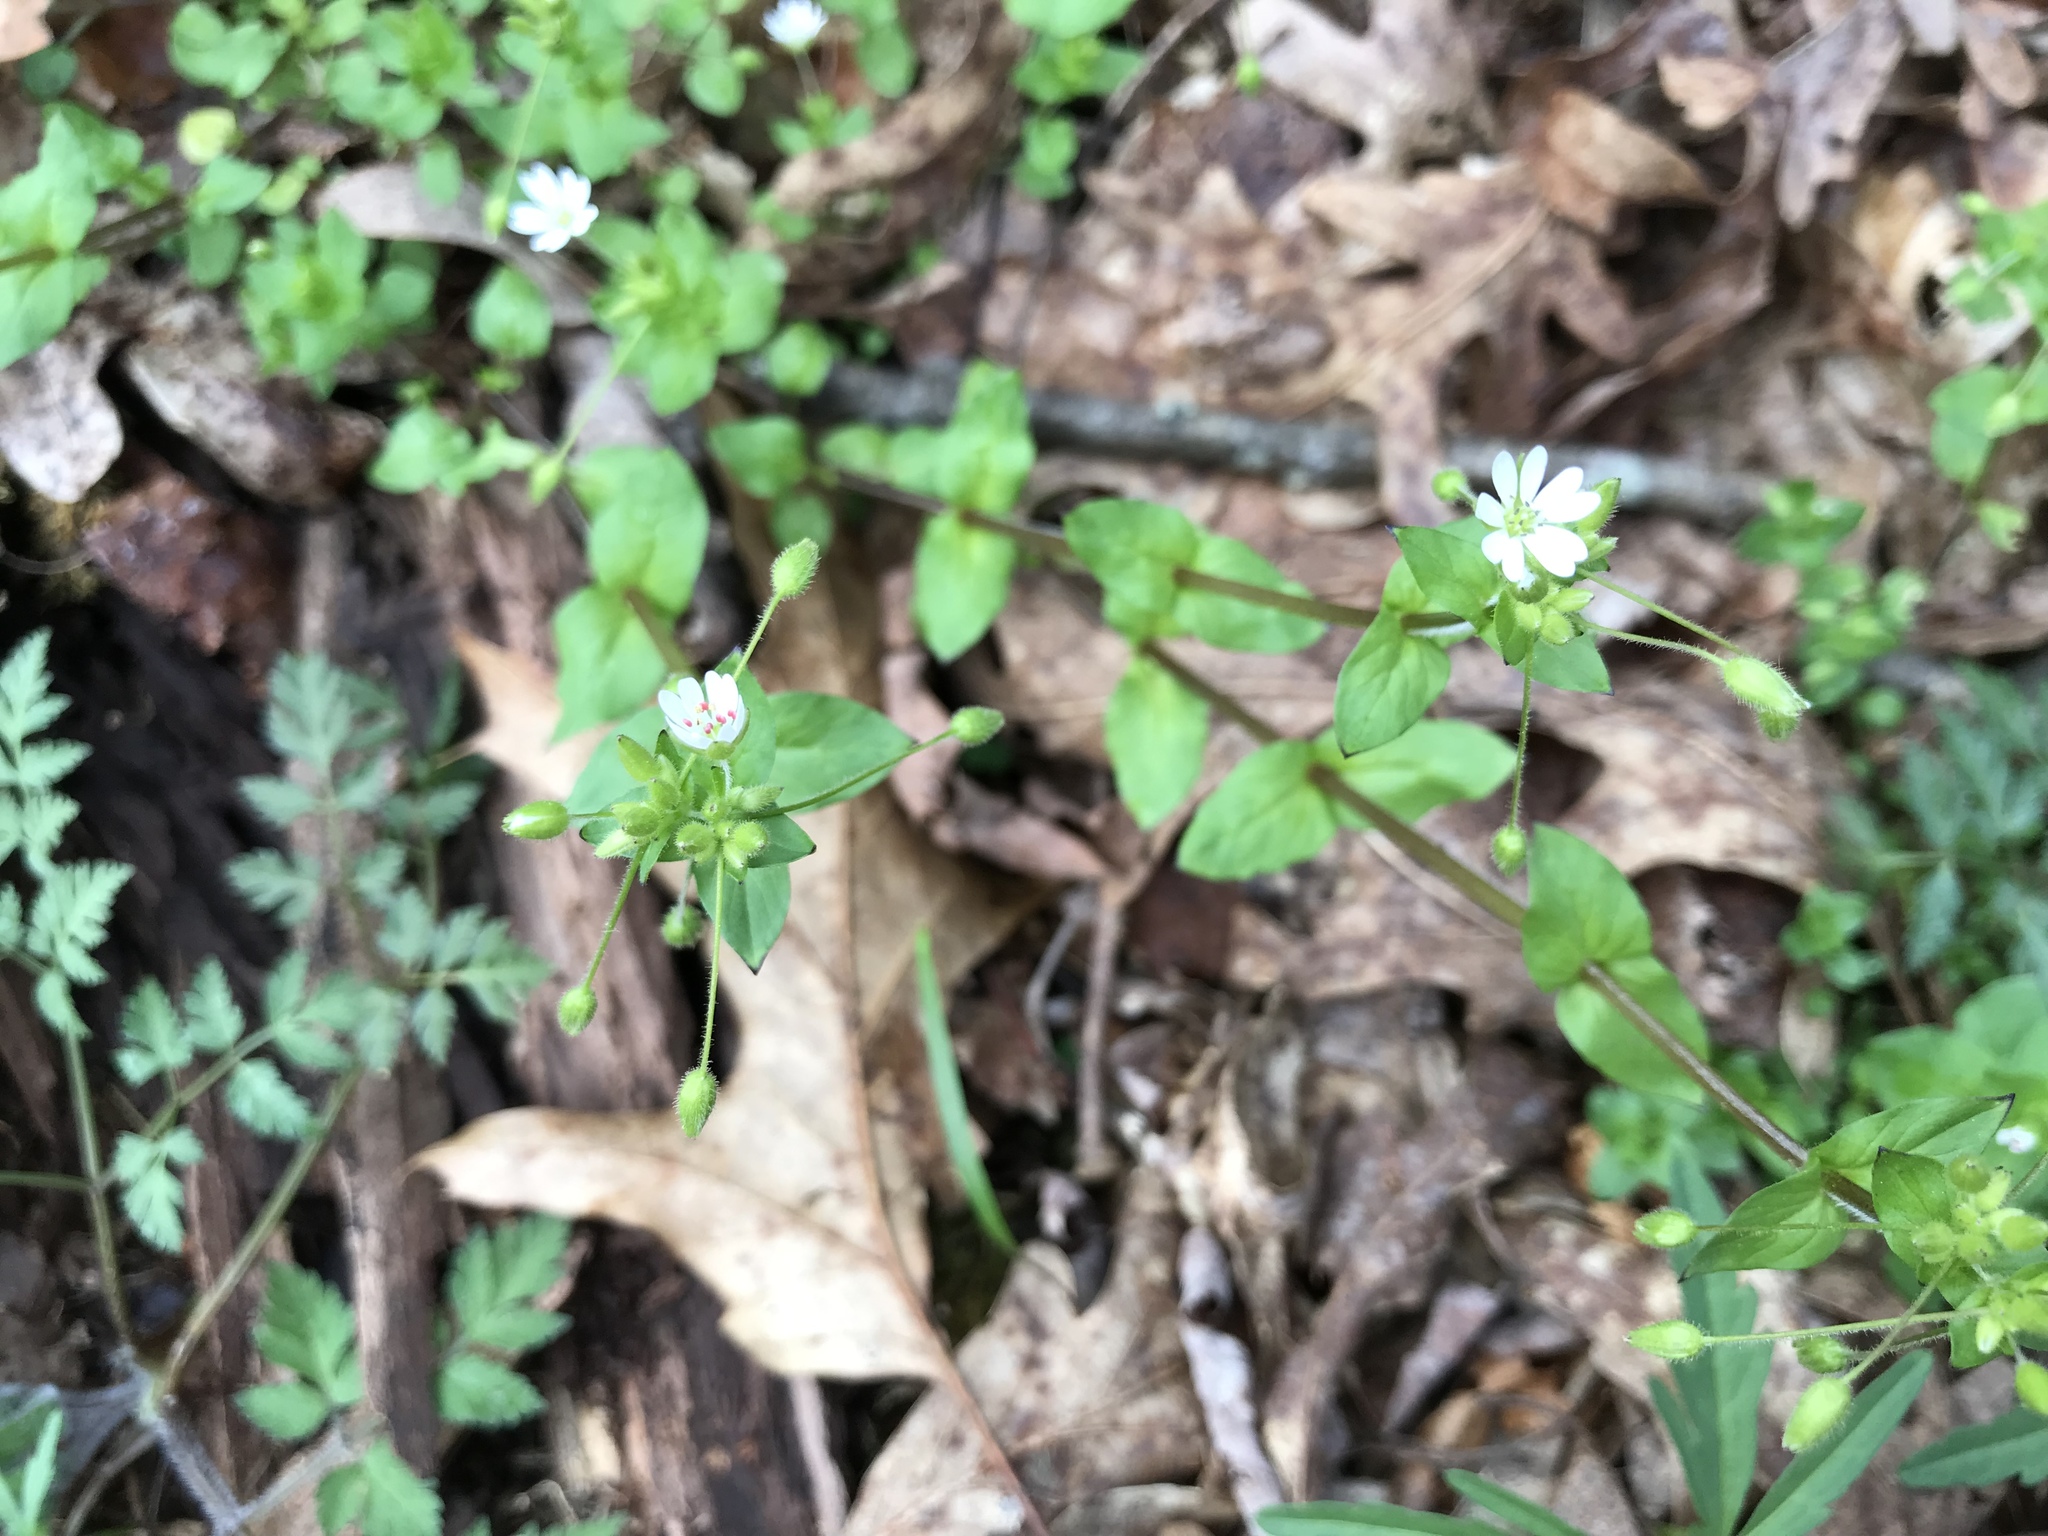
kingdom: Plantae
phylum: Tracheophyta
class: Magnoliopsida
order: Caryophyllales
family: Caryophyllaceae
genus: Stellaria
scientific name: Stellaria media
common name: Common chickweed
